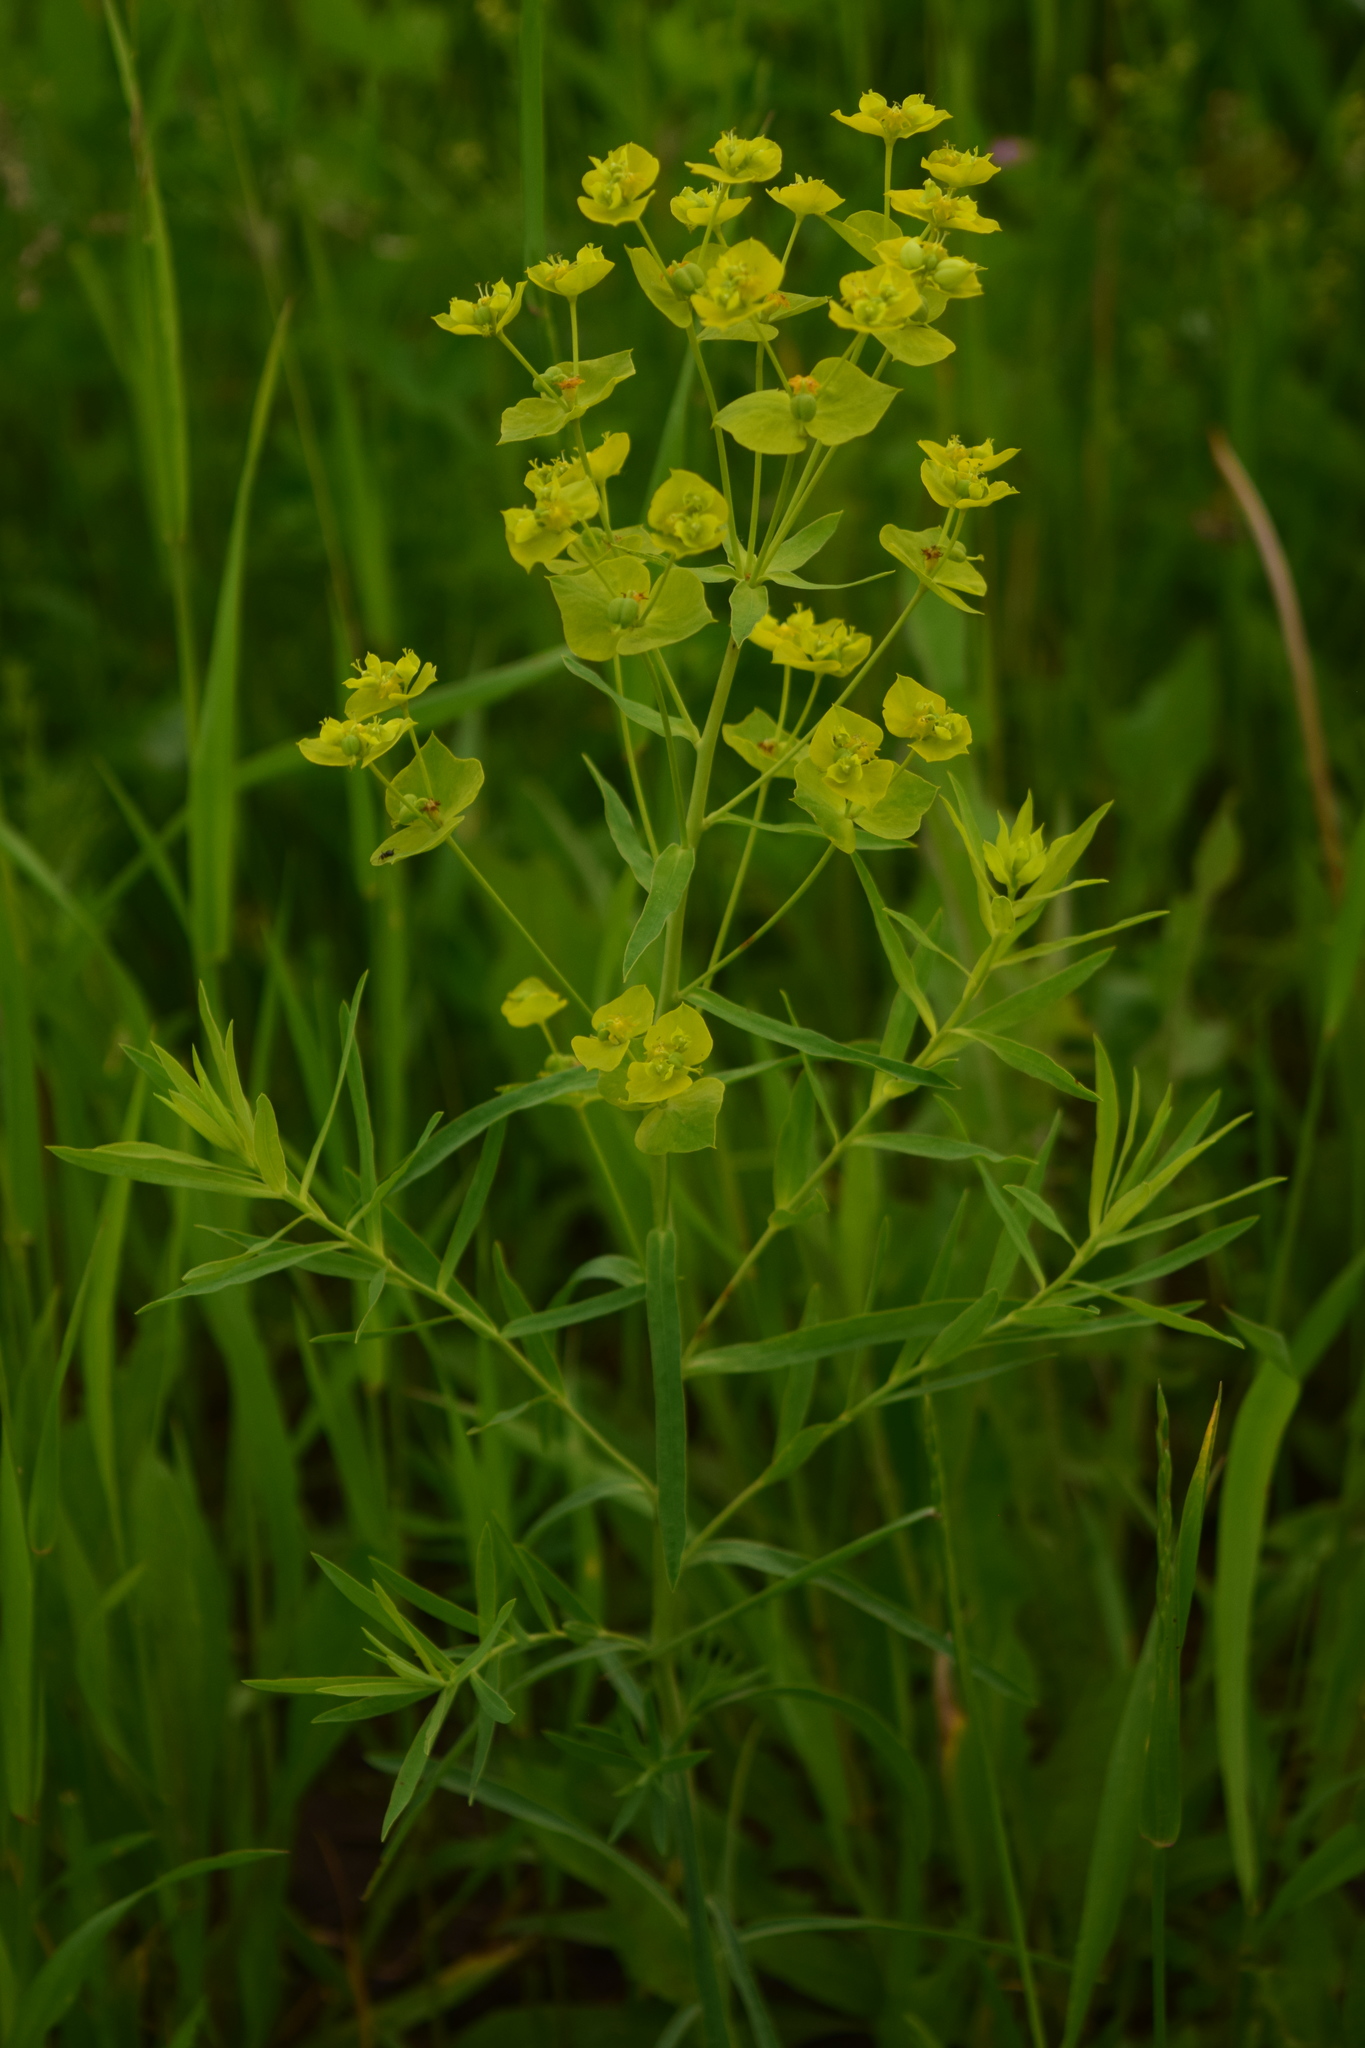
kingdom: Plantae
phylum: Tracheophyta
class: Magnoliopsida
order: Malpighiales
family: Euphorbiaceae
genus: Euphorbia
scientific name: Euphorbia virgata
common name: Leafy spurge
